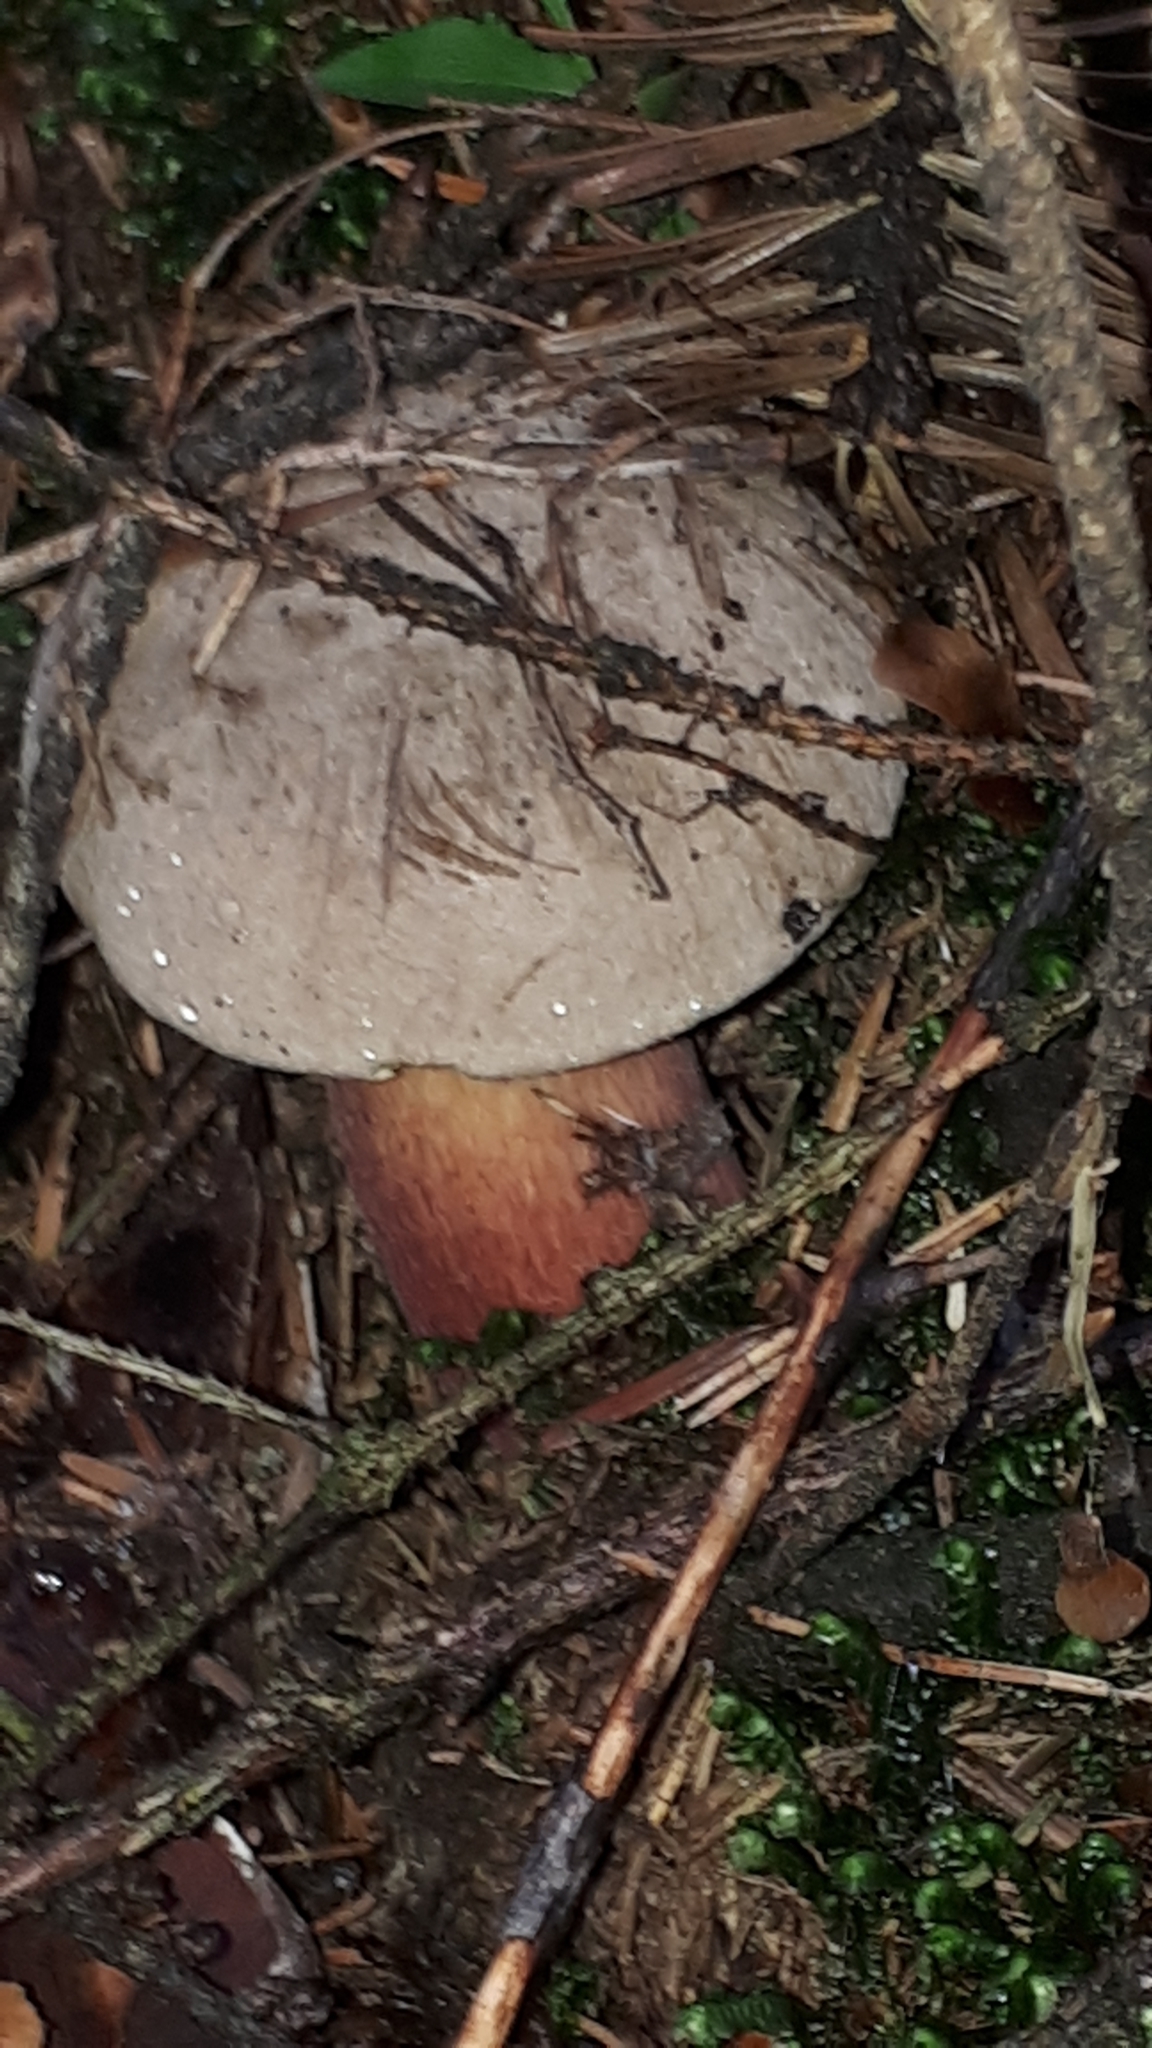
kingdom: Fungi
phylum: Basidiomycota
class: Agaricomycetes
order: Boletales
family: Boletaceae
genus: Caloboletus
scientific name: Caloboletus calopus
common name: Bitter beech bolete
